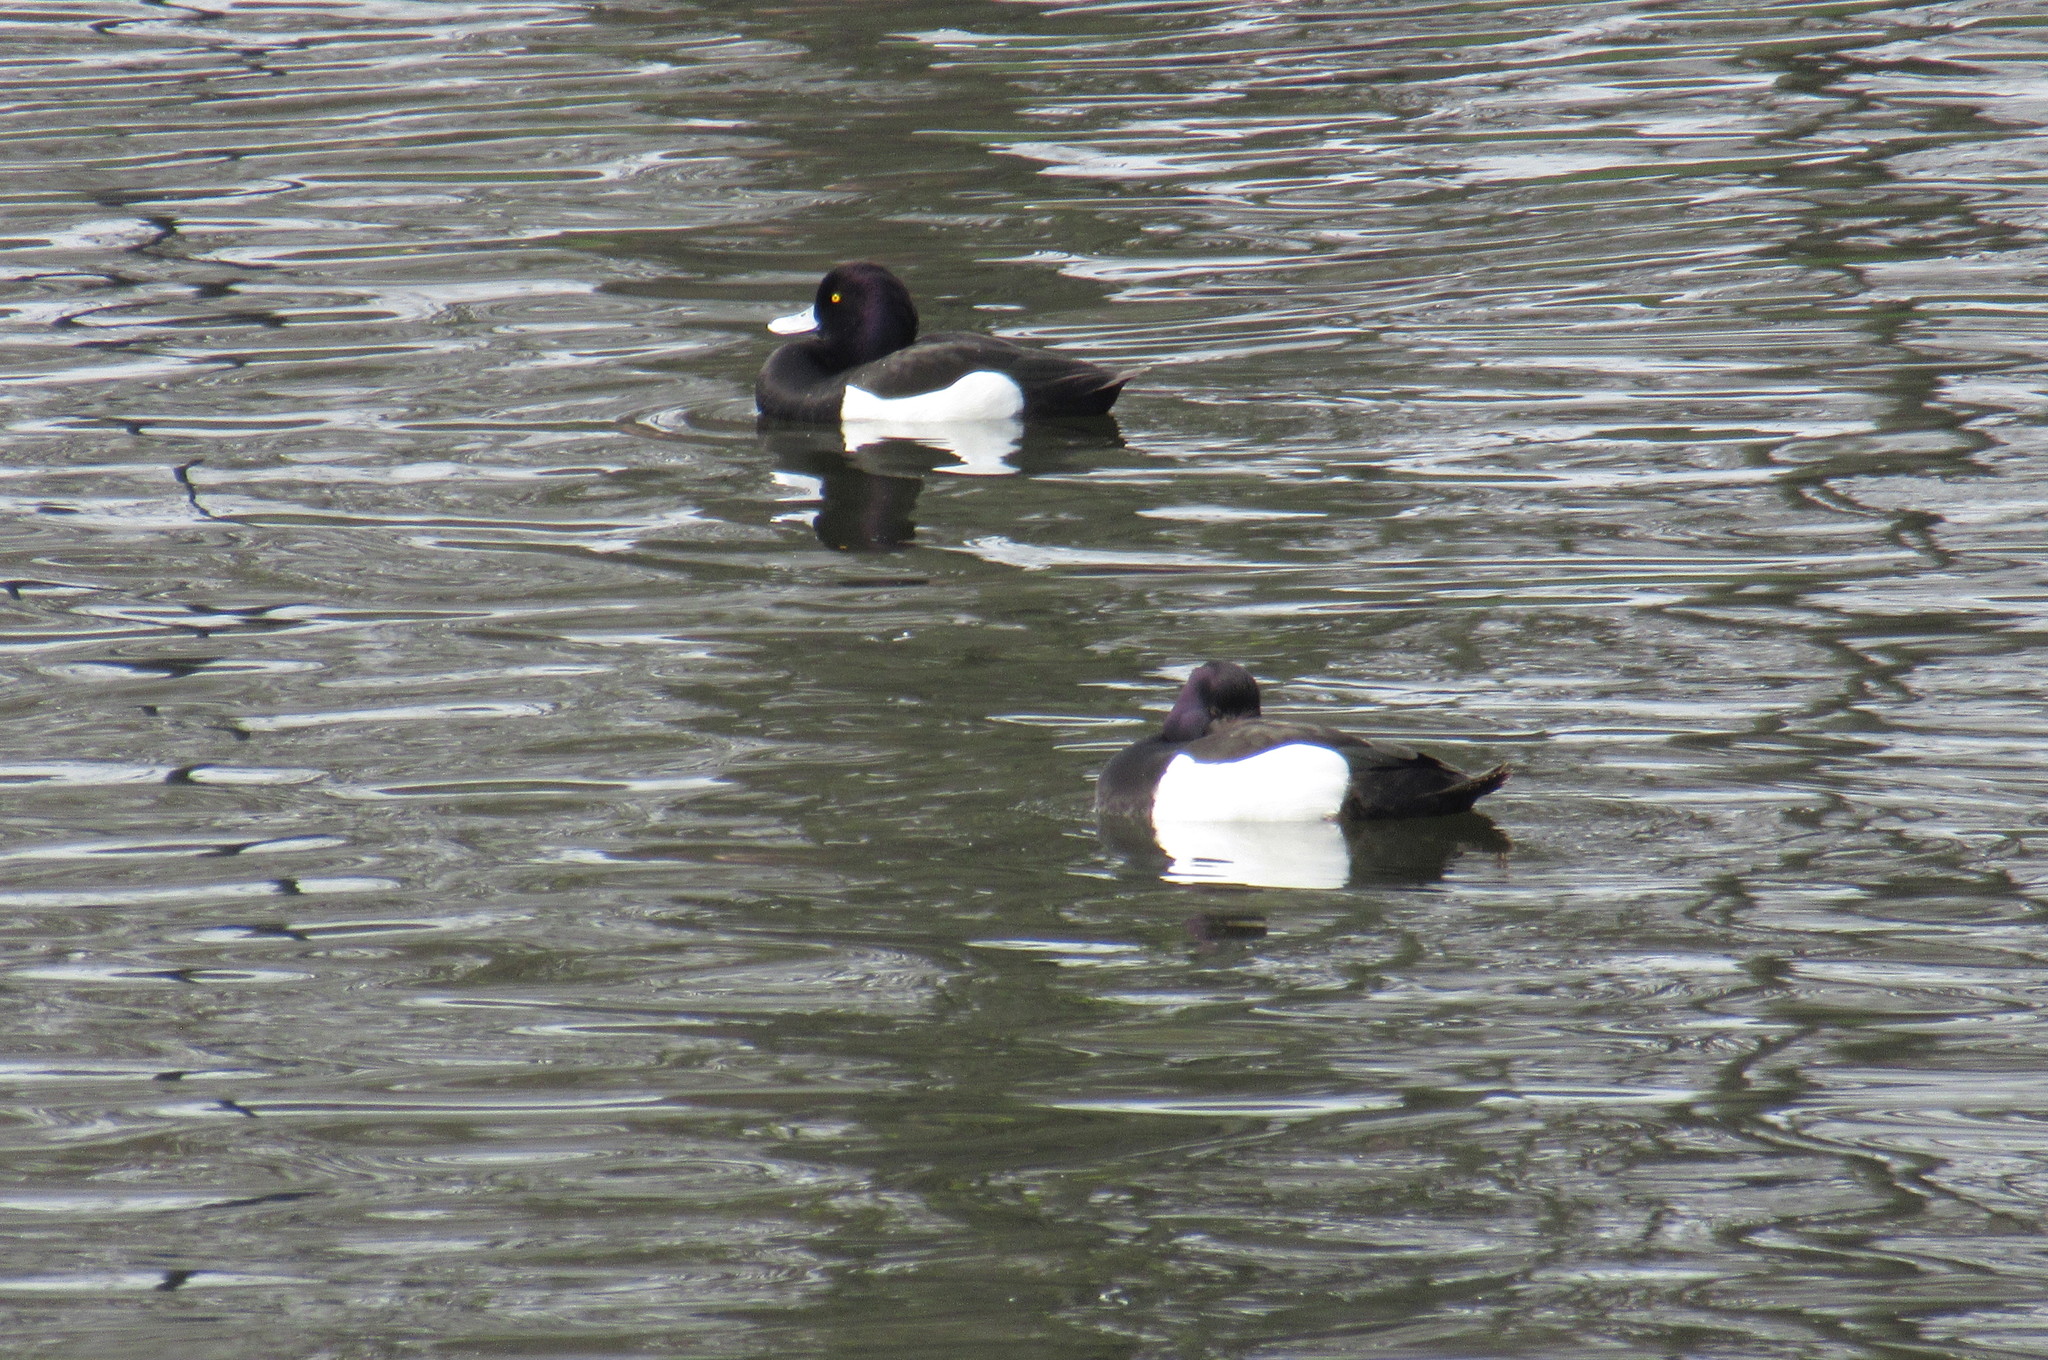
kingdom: Animalia
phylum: Chordata
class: Aves
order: Anseriformes
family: Anatidae
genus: Aythya
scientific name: Aythya fuligula
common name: Tufted duck
